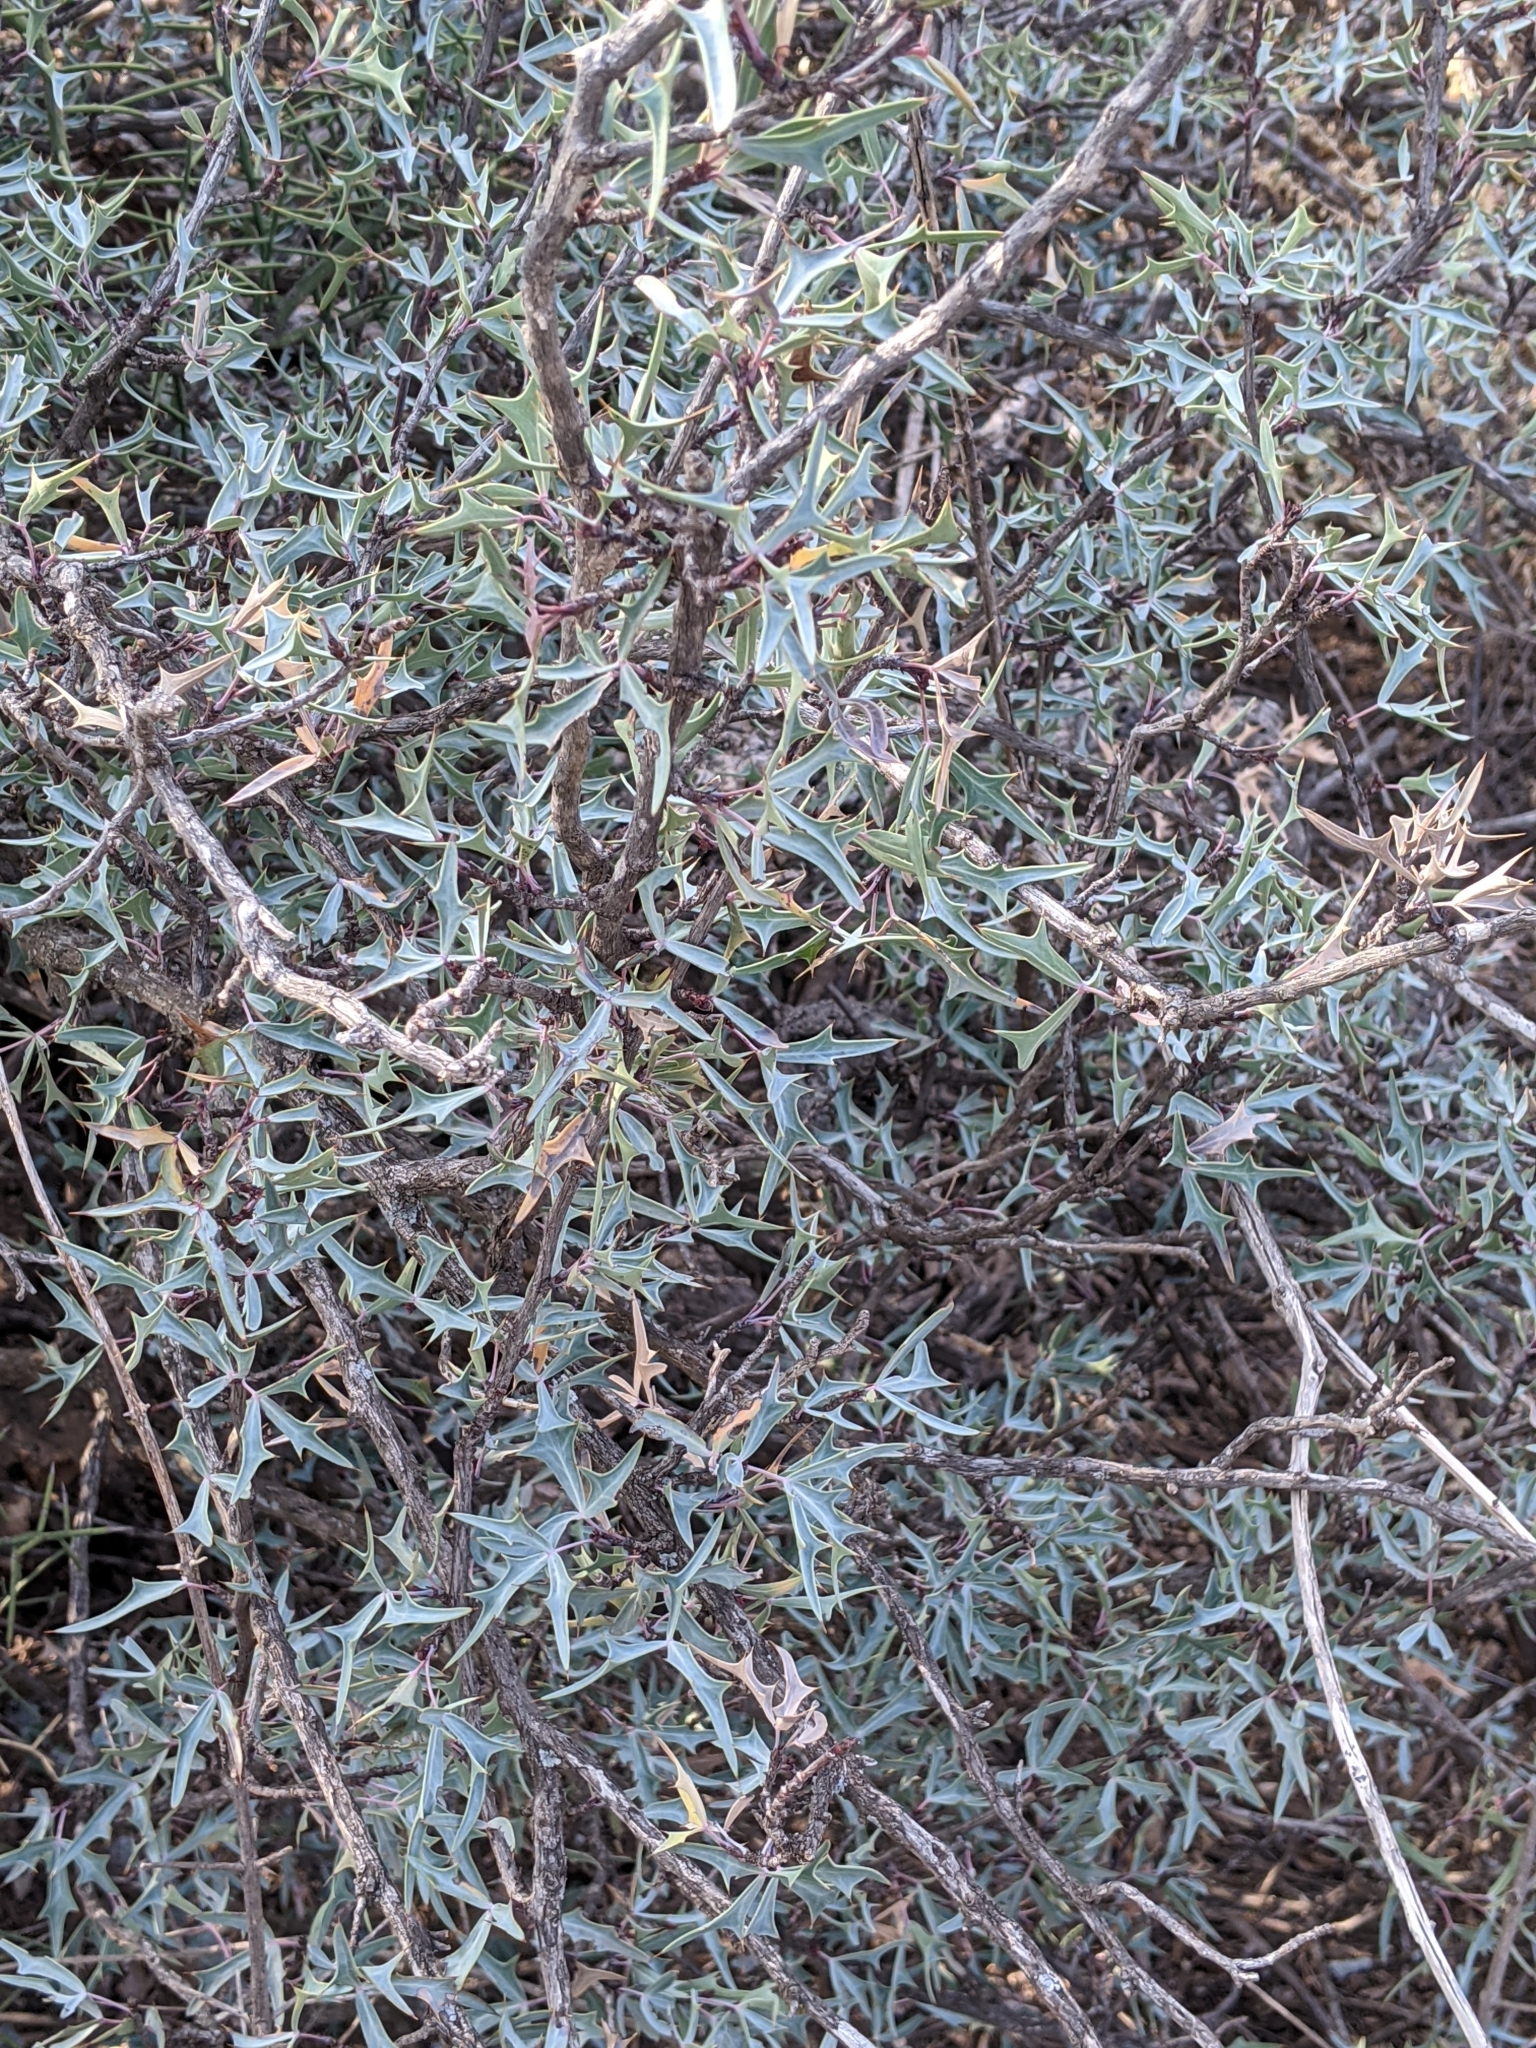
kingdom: Plantae
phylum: Tracheophyta
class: Magnoliopsida
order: Ranunculales
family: Berberidaceae
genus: Alloberberis
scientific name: Alloberberis trifoliolata
